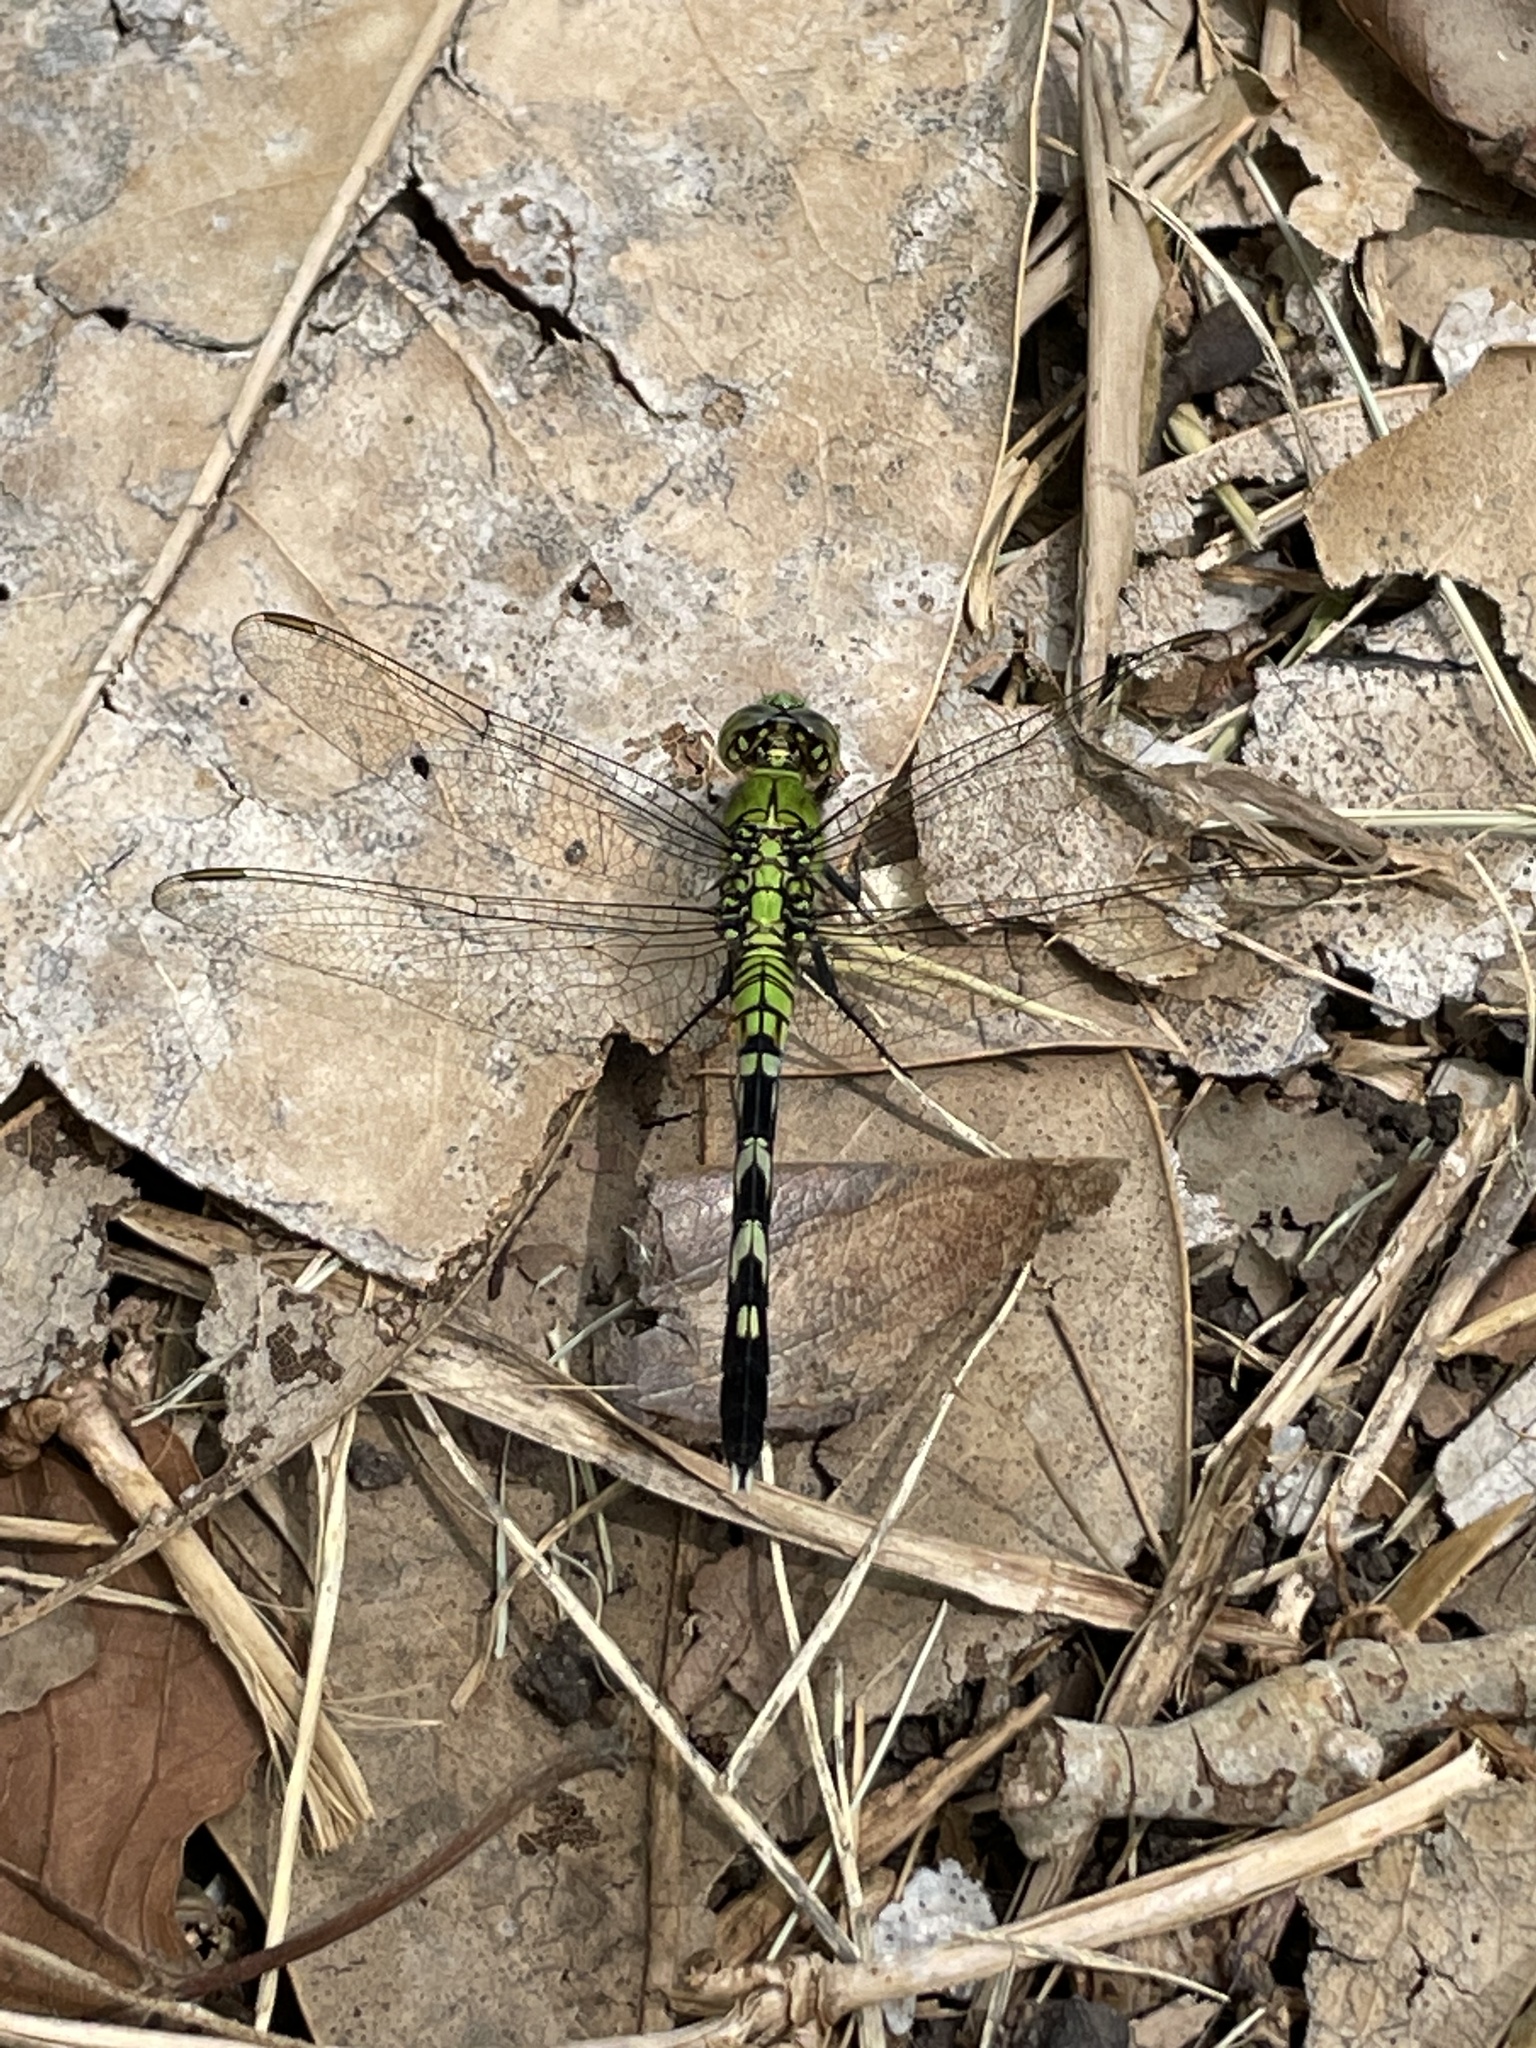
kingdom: Animalia
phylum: Arthropoda
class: Insecta
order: Odonata
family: Libellulidae
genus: Erythemis
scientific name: Erythemis simplicicollis
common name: Eastern pondhawk
